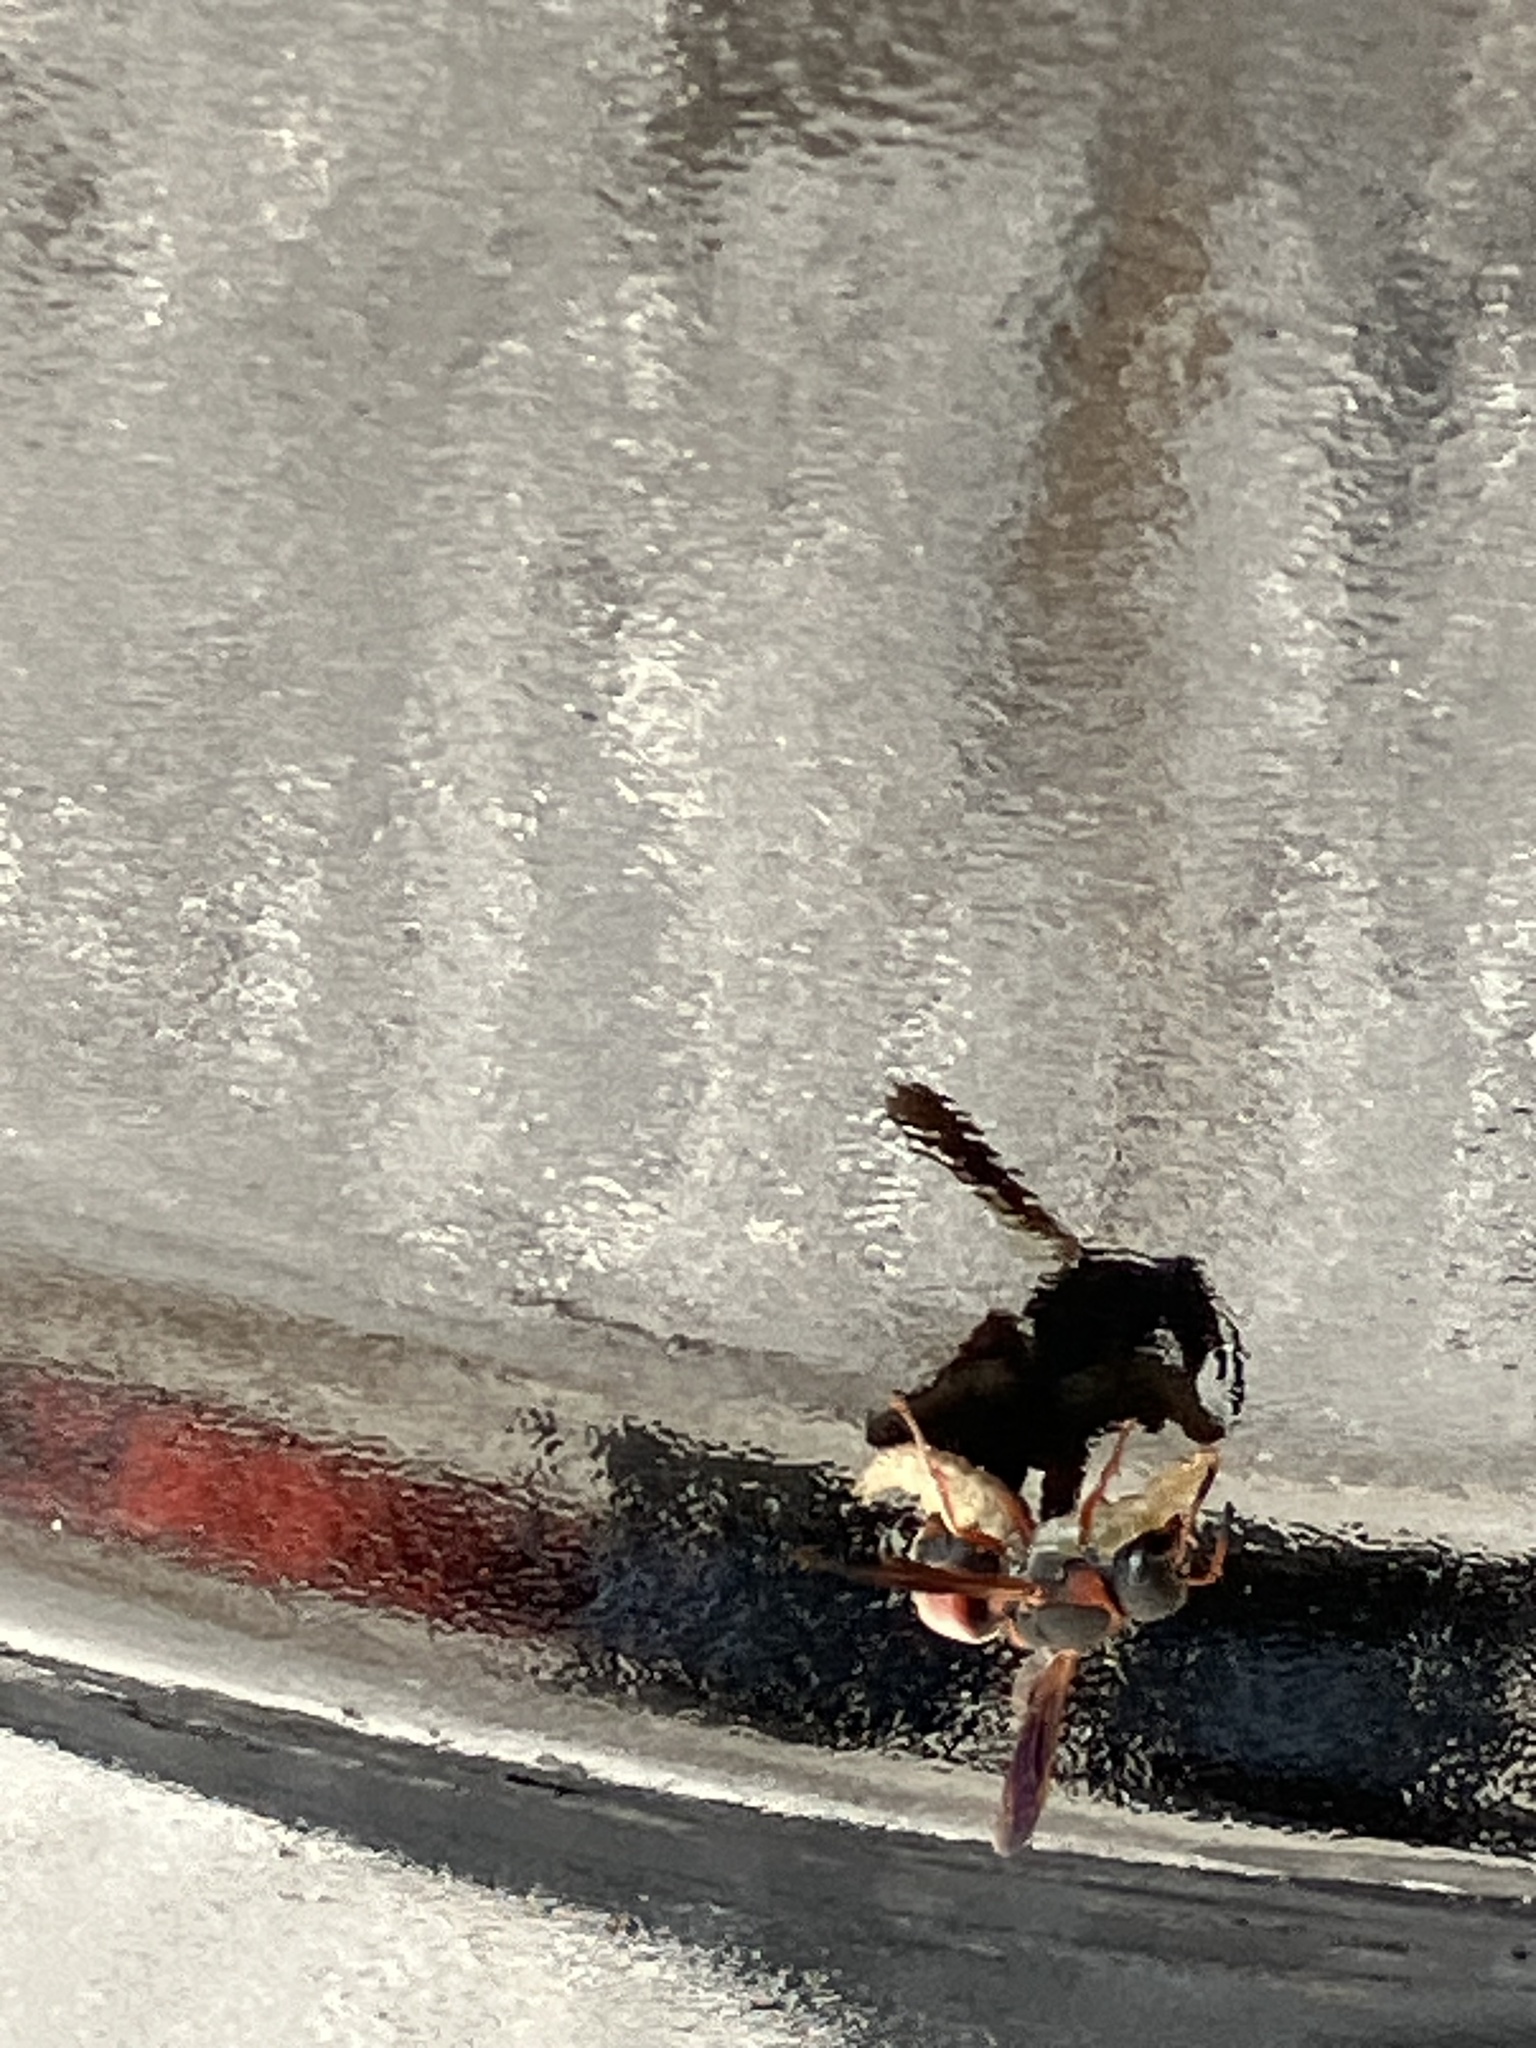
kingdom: Animalia
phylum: Arthropoda
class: Insecta
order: Hymenoptera
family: Eumenidae
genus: Pachodynerus
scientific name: Pachodynerus erynnis
